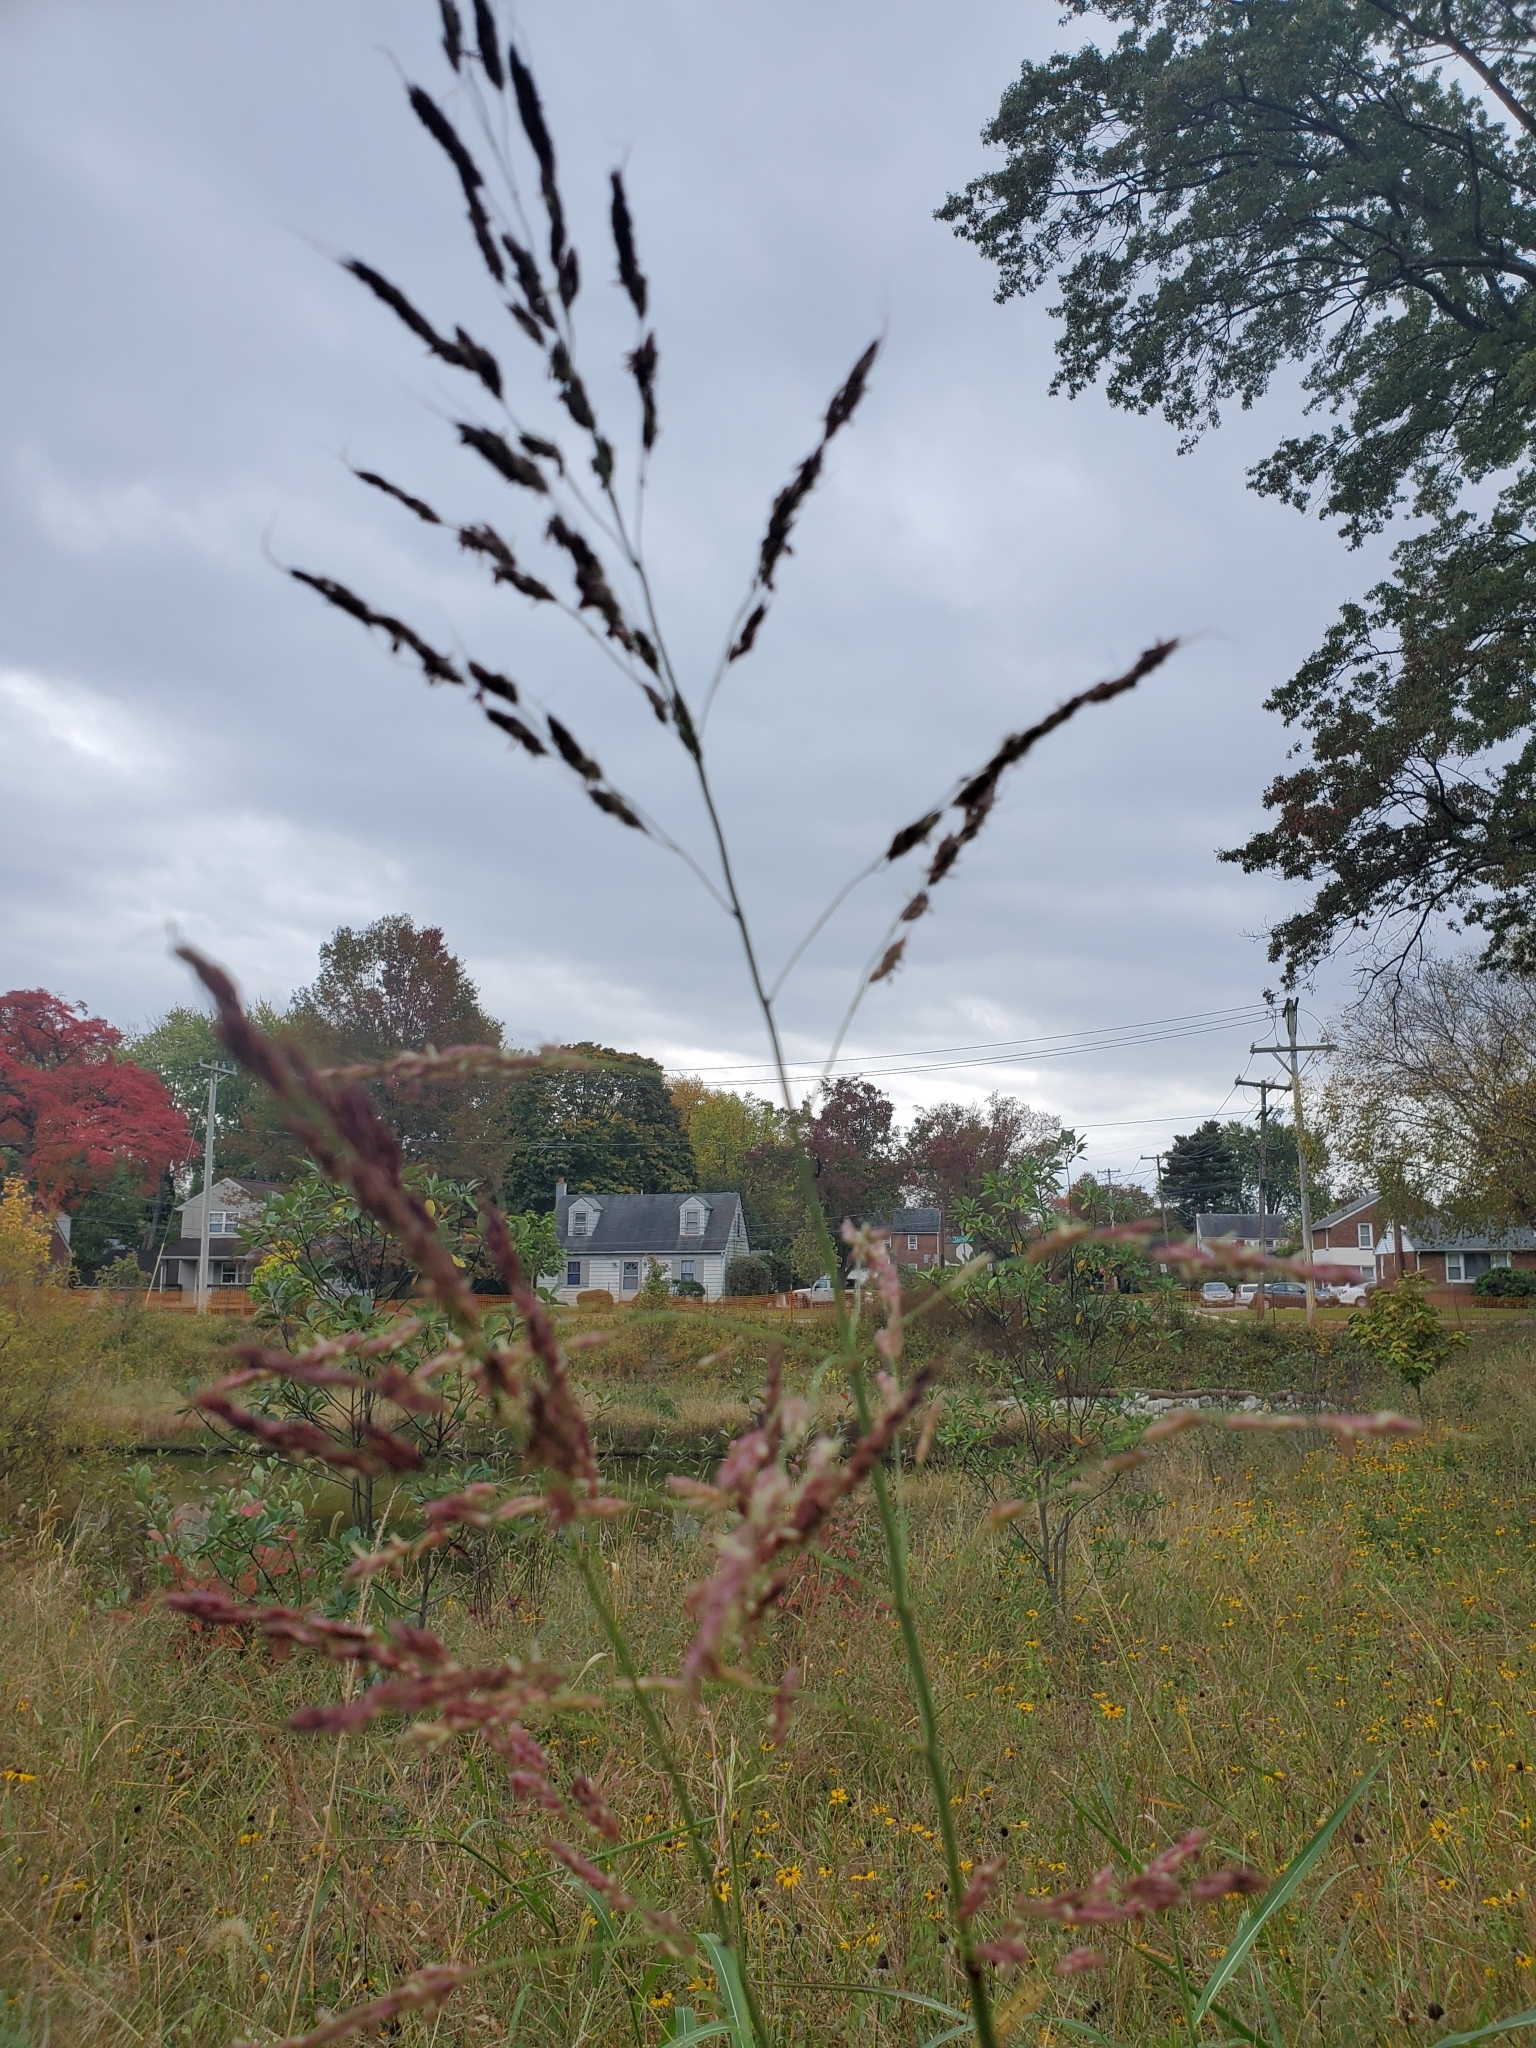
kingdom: Plantae
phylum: Tracheophyta
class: Liliopsida
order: Poales
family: Poaceae
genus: Sorghum
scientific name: Sorghum halepense
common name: Johnson-grass
